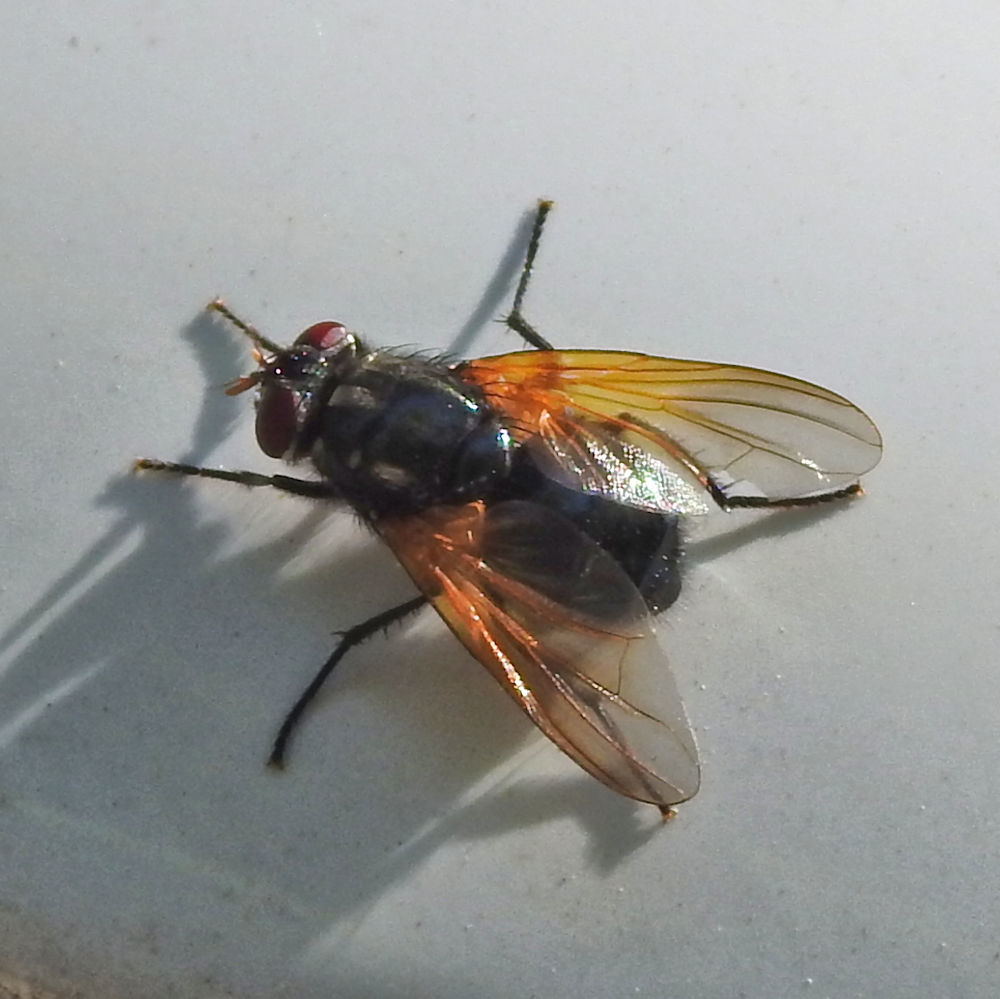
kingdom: Animalia
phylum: Arthropoda
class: Insecta
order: Diptera
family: Muscidae
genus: Mesembrina
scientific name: Mesembrina latreillii
